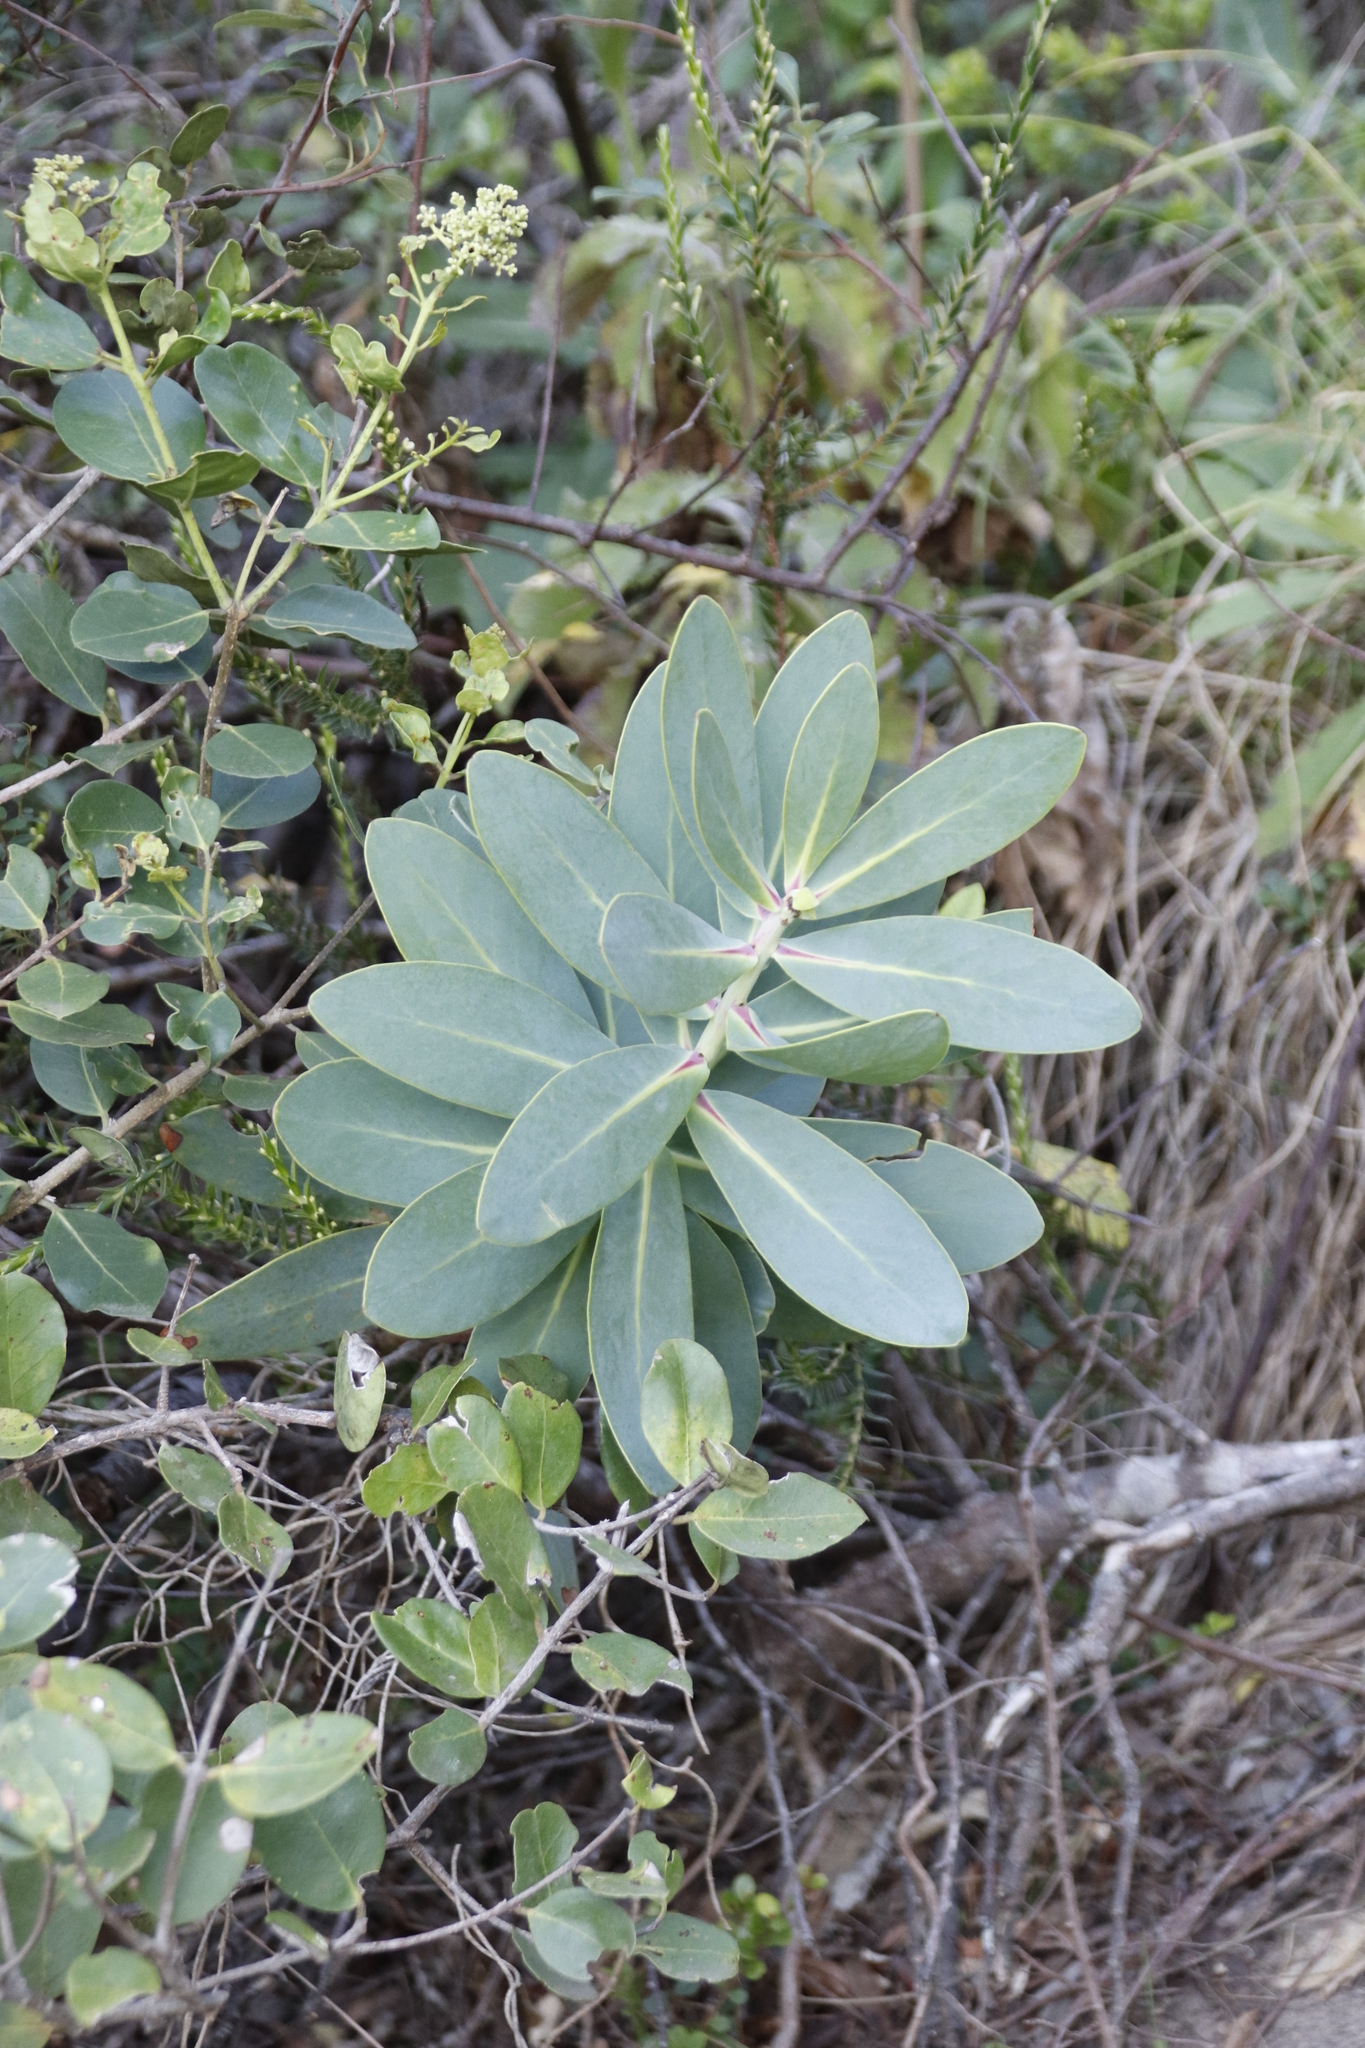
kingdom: Plantae
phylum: Tracheophyta
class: Magnoliopsida
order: Proteales
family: Proteaceae
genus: Protea
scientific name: Protea nitida
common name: Tree protea
